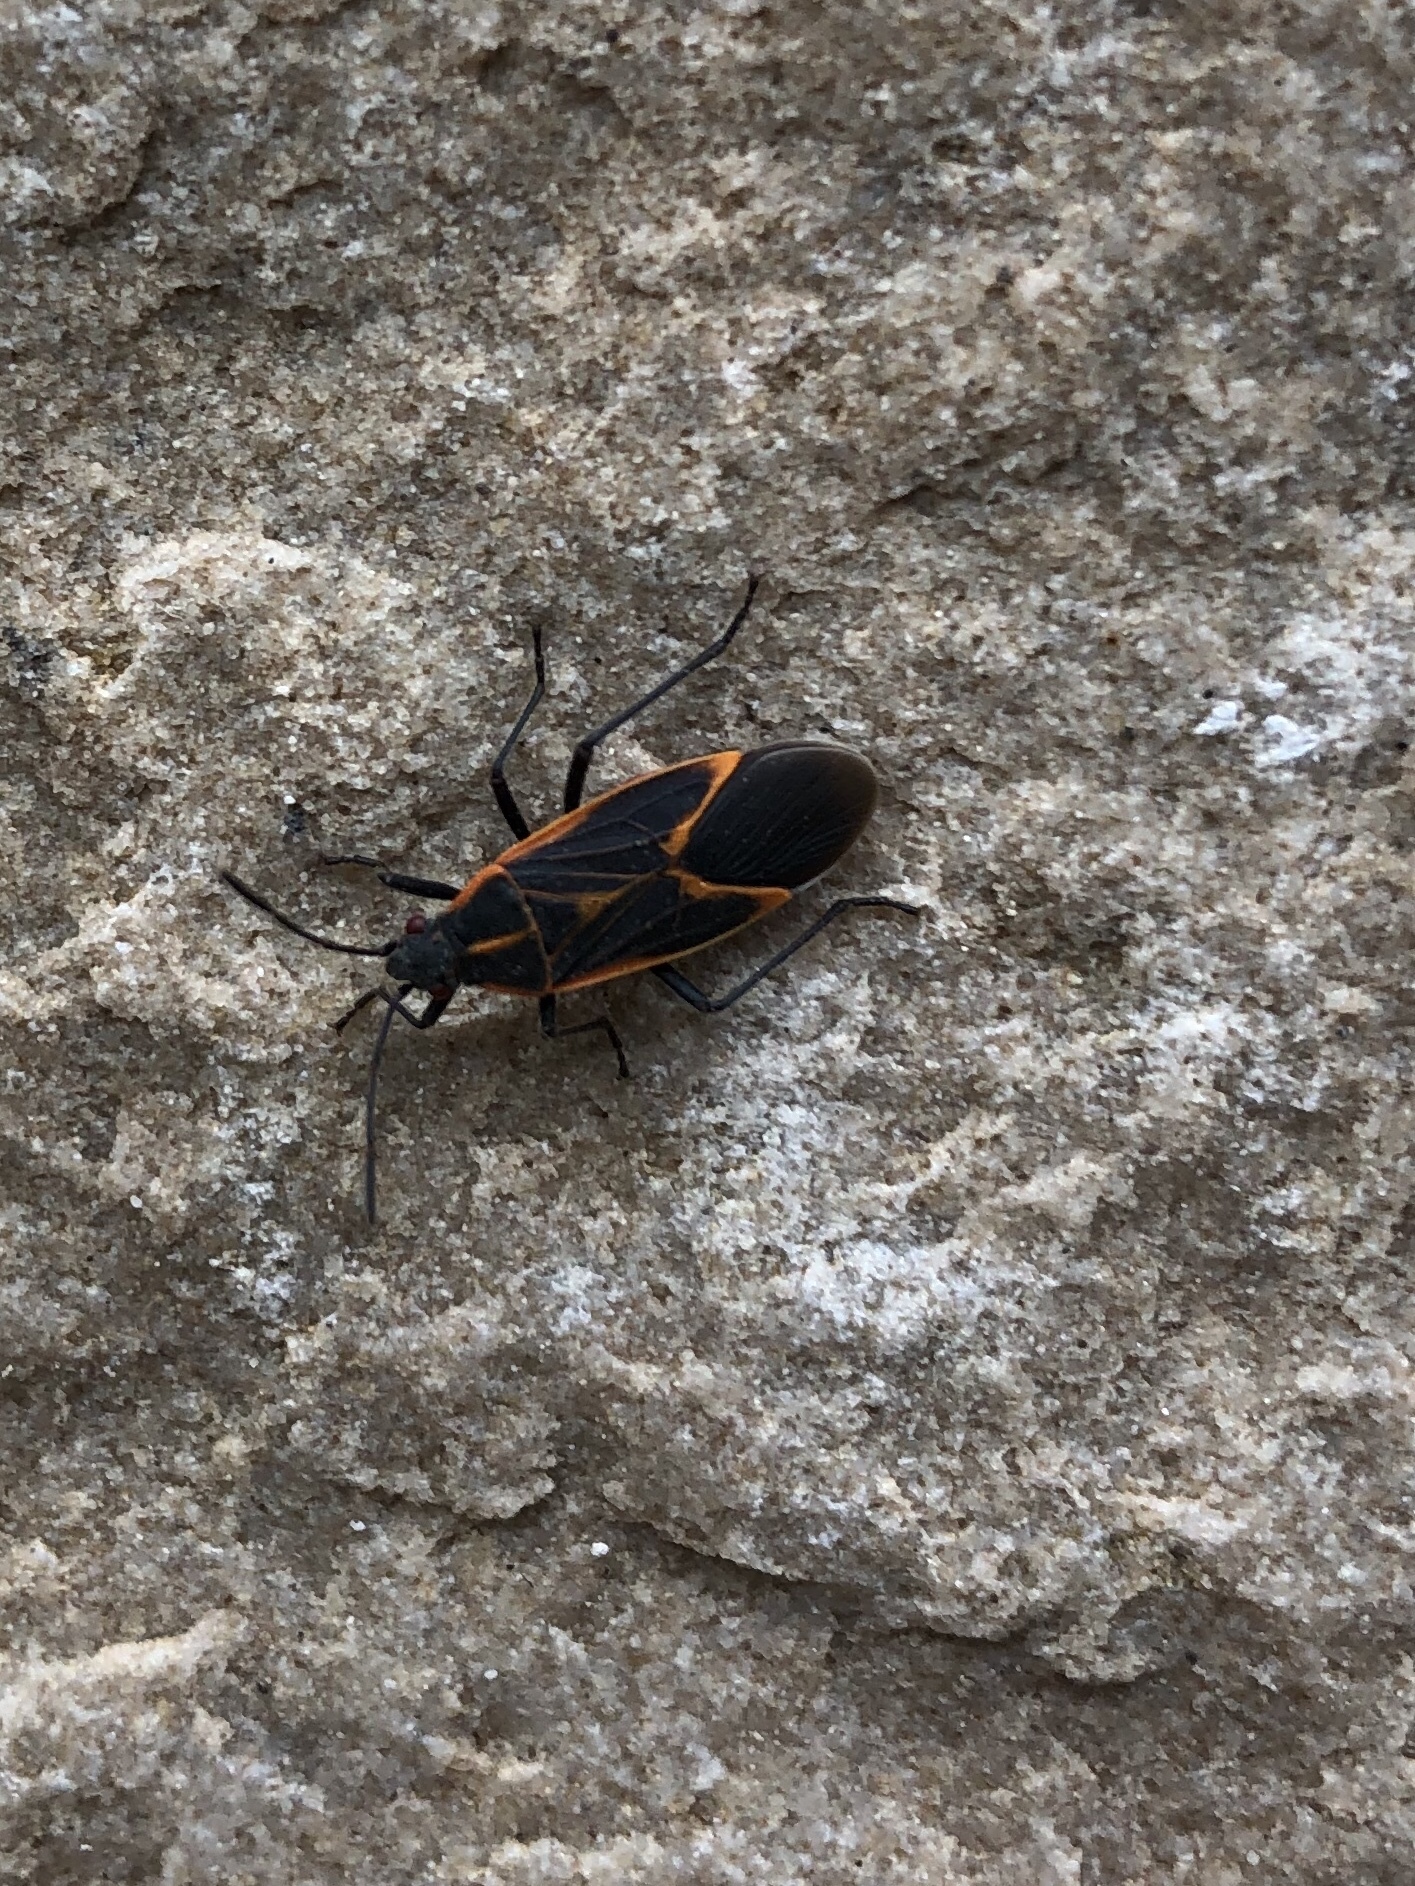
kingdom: Animalia
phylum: Arthropoda
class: Insecta
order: Hemiptera
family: Rhopalidae
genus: Boisea
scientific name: Boisea trivittata
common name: Boxelder bug
